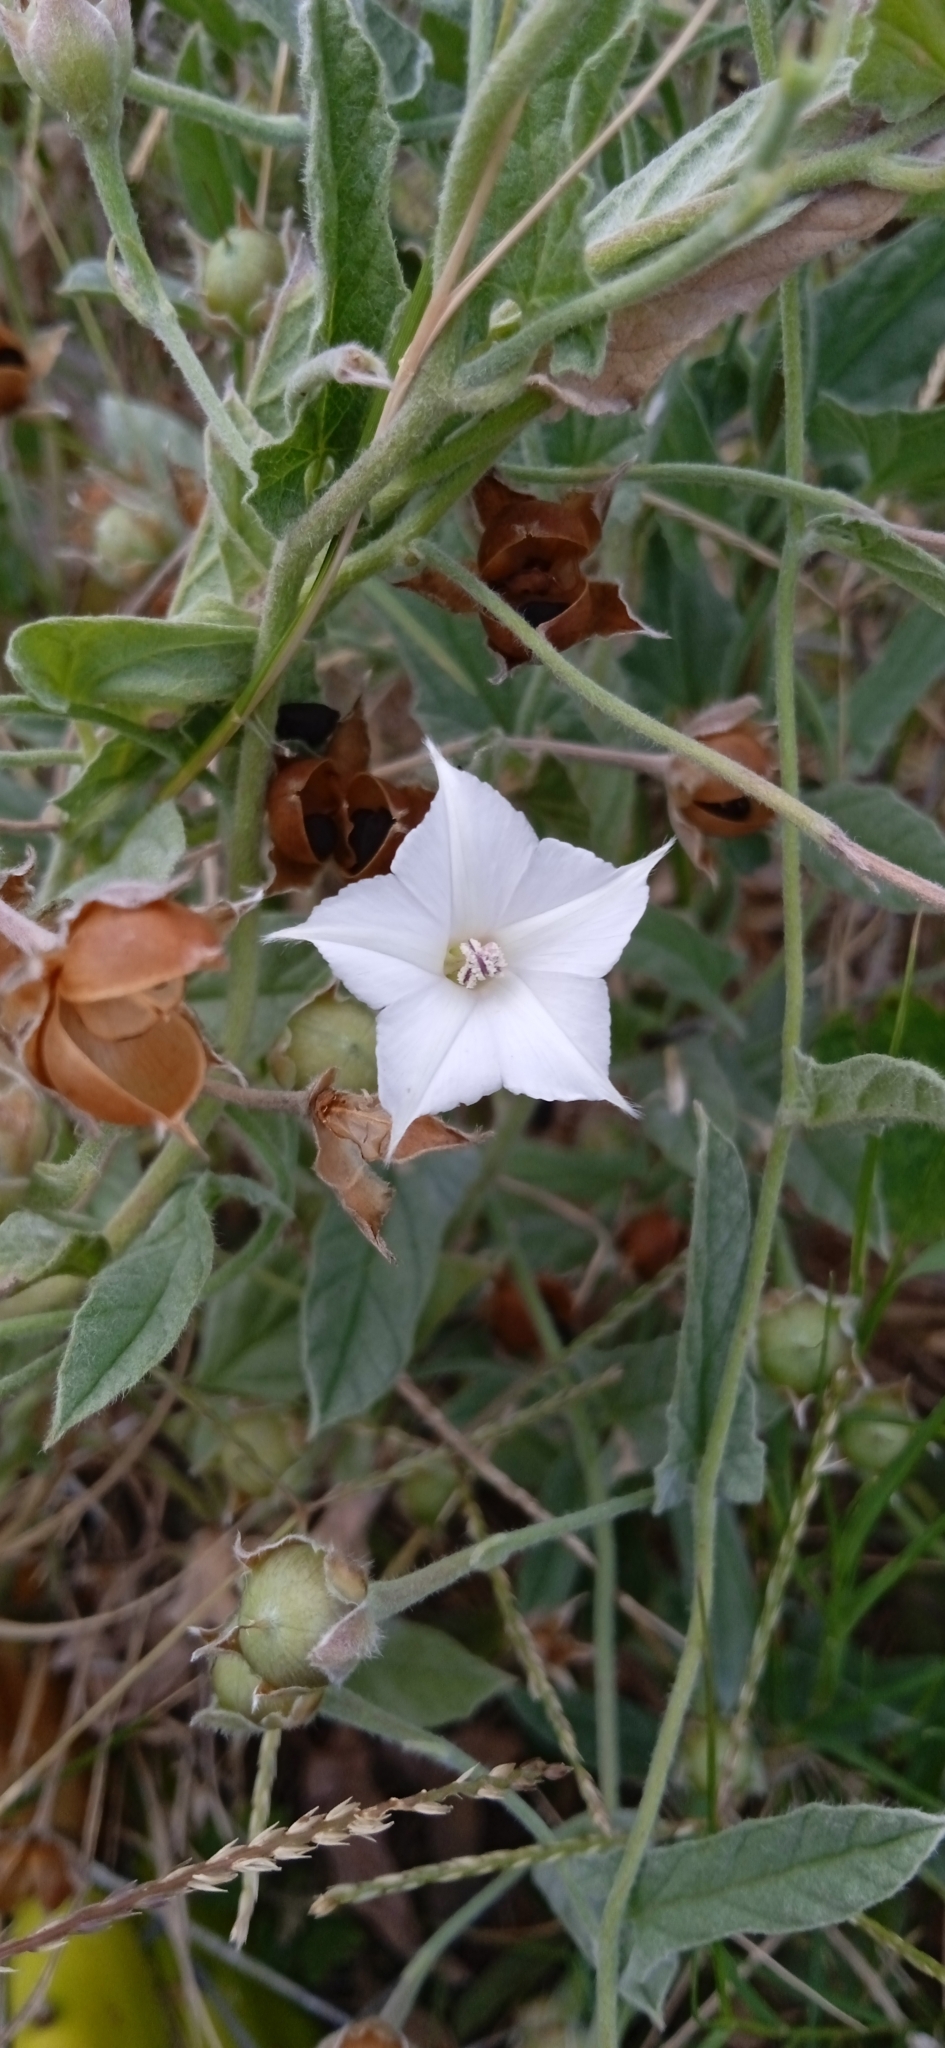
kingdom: Plantae
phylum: Tracheophyta
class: Magnoliopsida
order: Solanales
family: Convolvulaceae
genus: Convolvulus
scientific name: Convolvulus hermanniae
